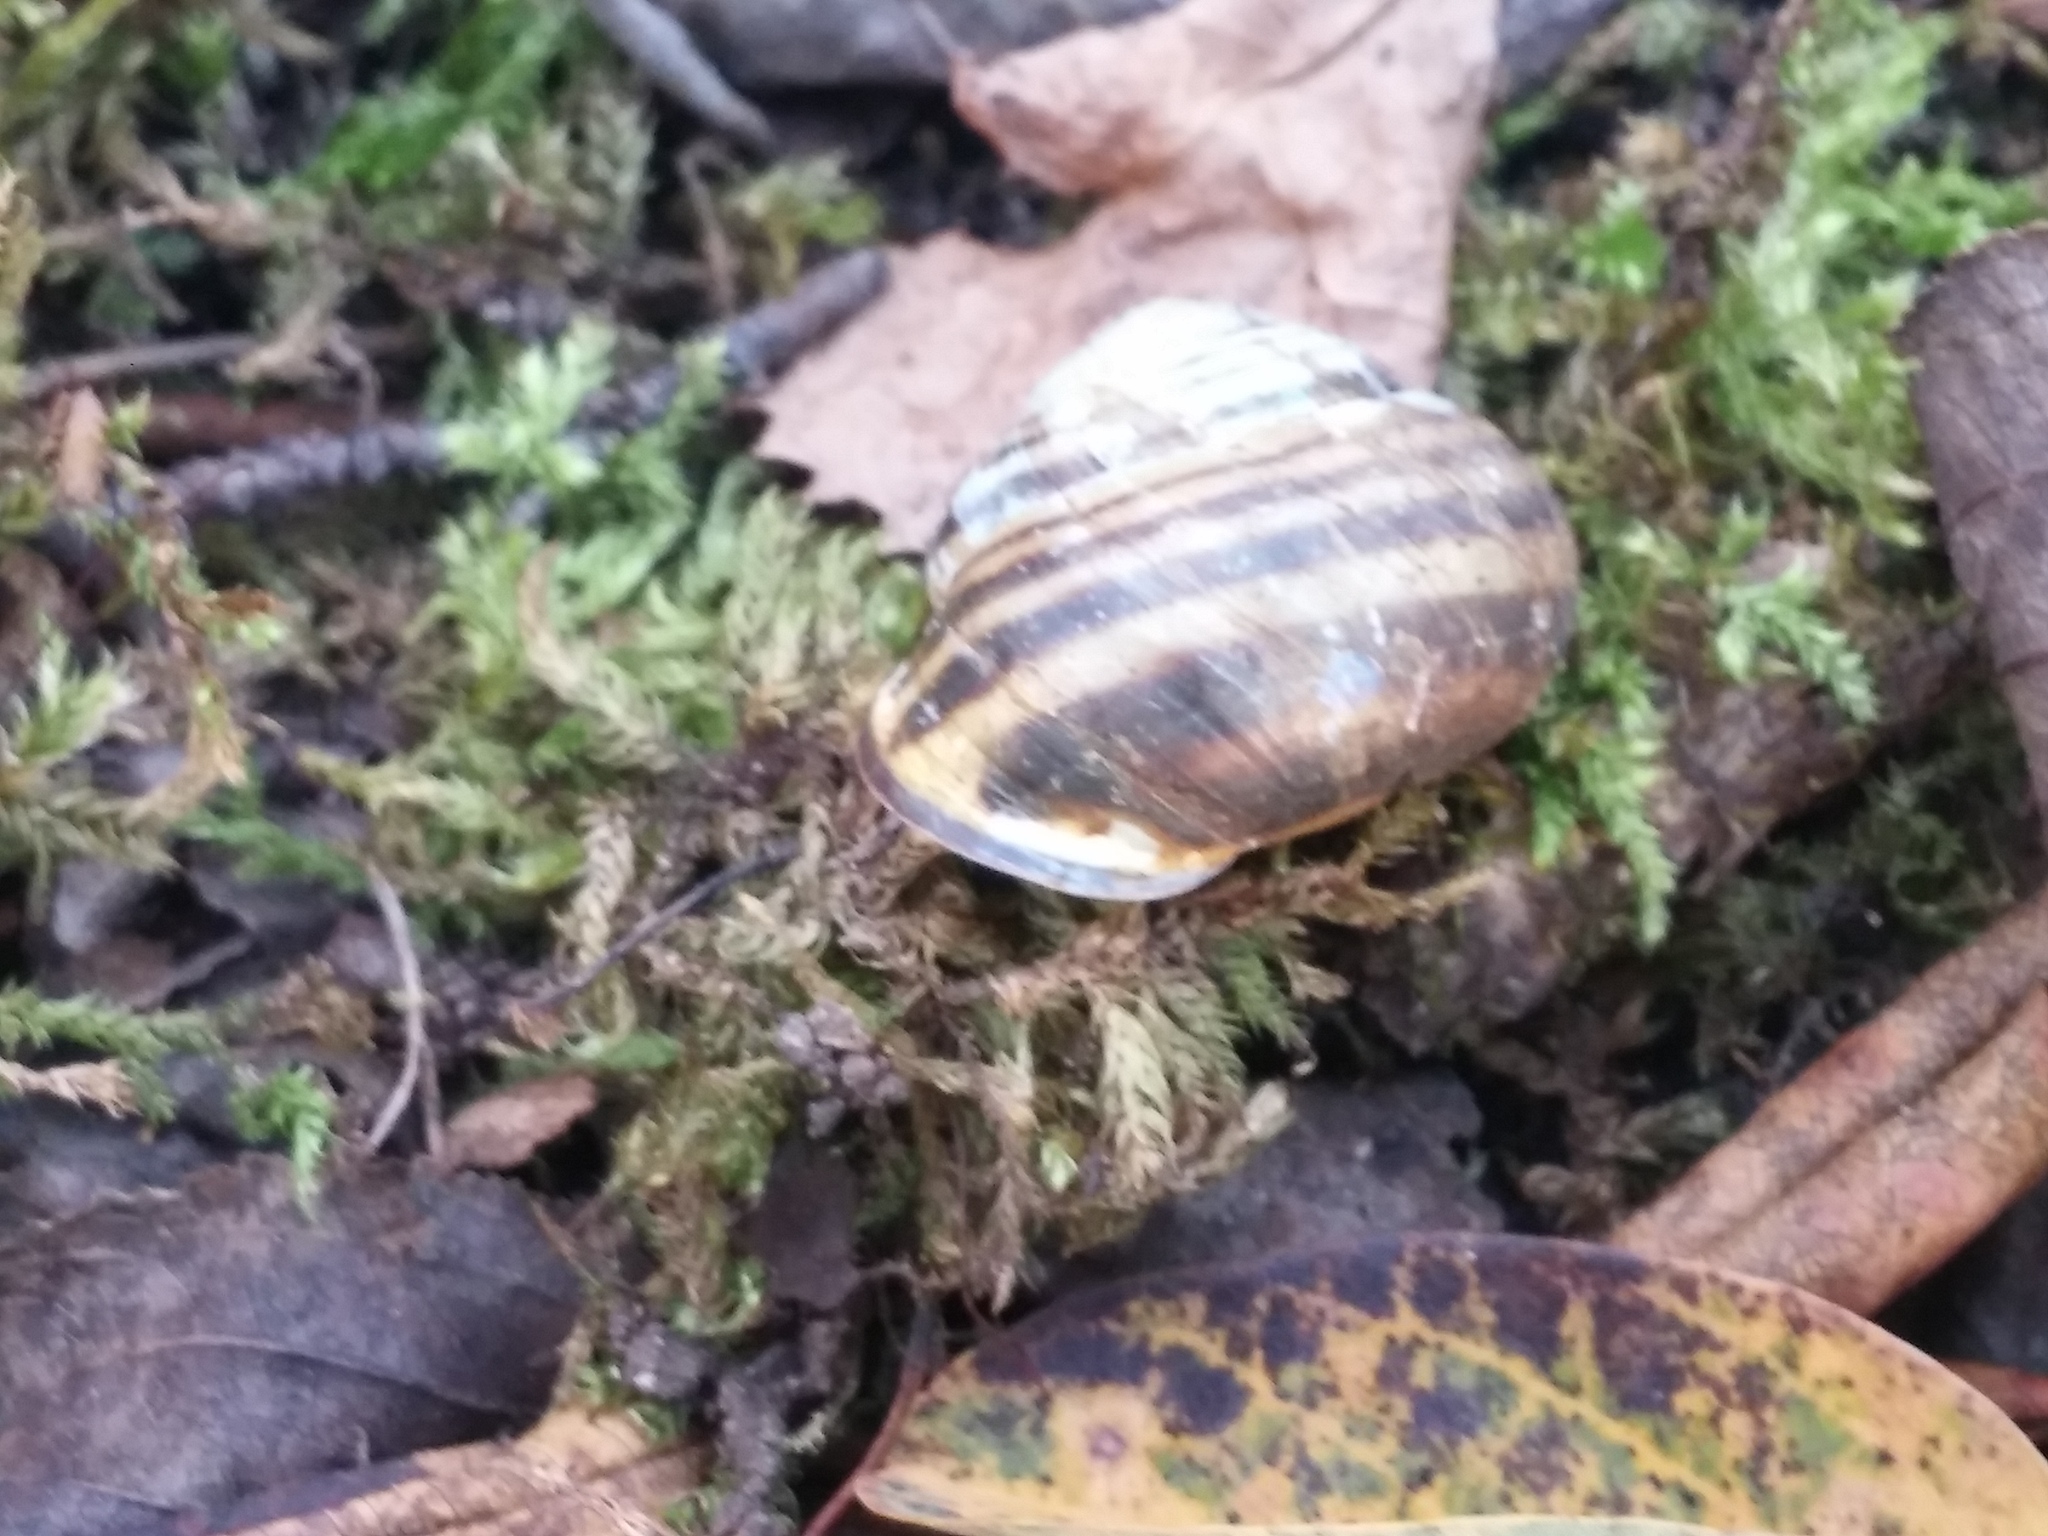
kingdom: Animalia
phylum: Mollusca
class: Gastropoda
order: Stylommatophora
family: Helicidae
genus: Cepaea
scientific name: Cepaea nemoralis
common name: Grovesnail
